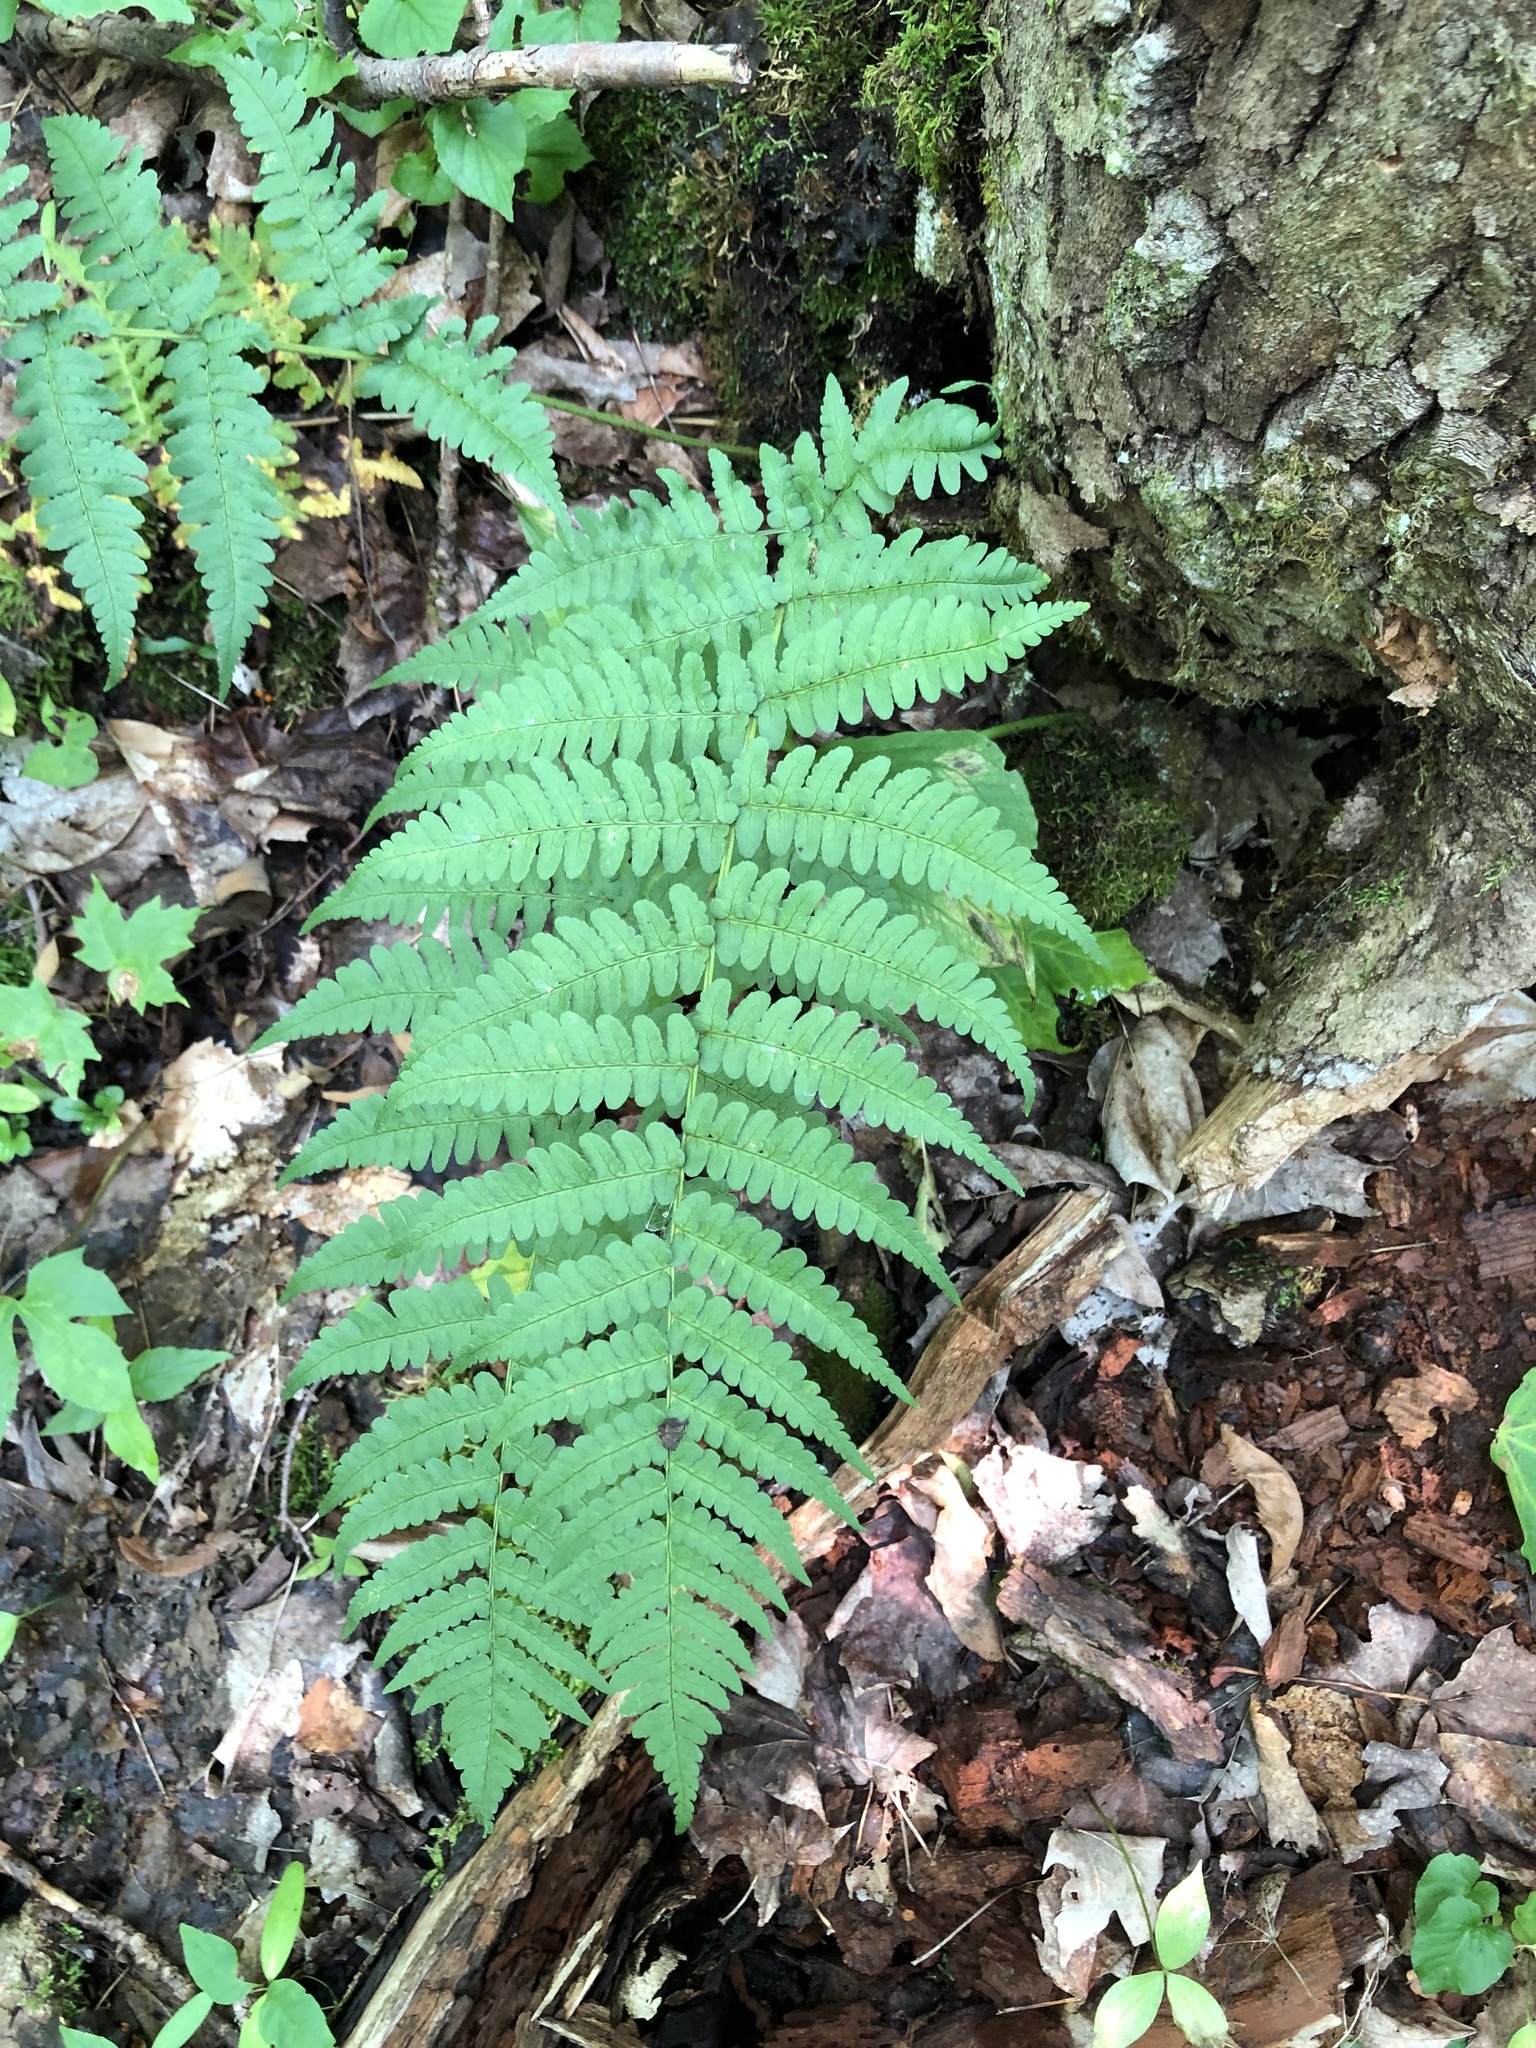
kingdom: Plantae
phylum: Tracheophyta
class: Polypodiopsida
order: Polypodiales
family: Dryopteridaceae
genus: Dryopteris
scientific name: Dryopteris marginalis
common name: Marginal wood fern
